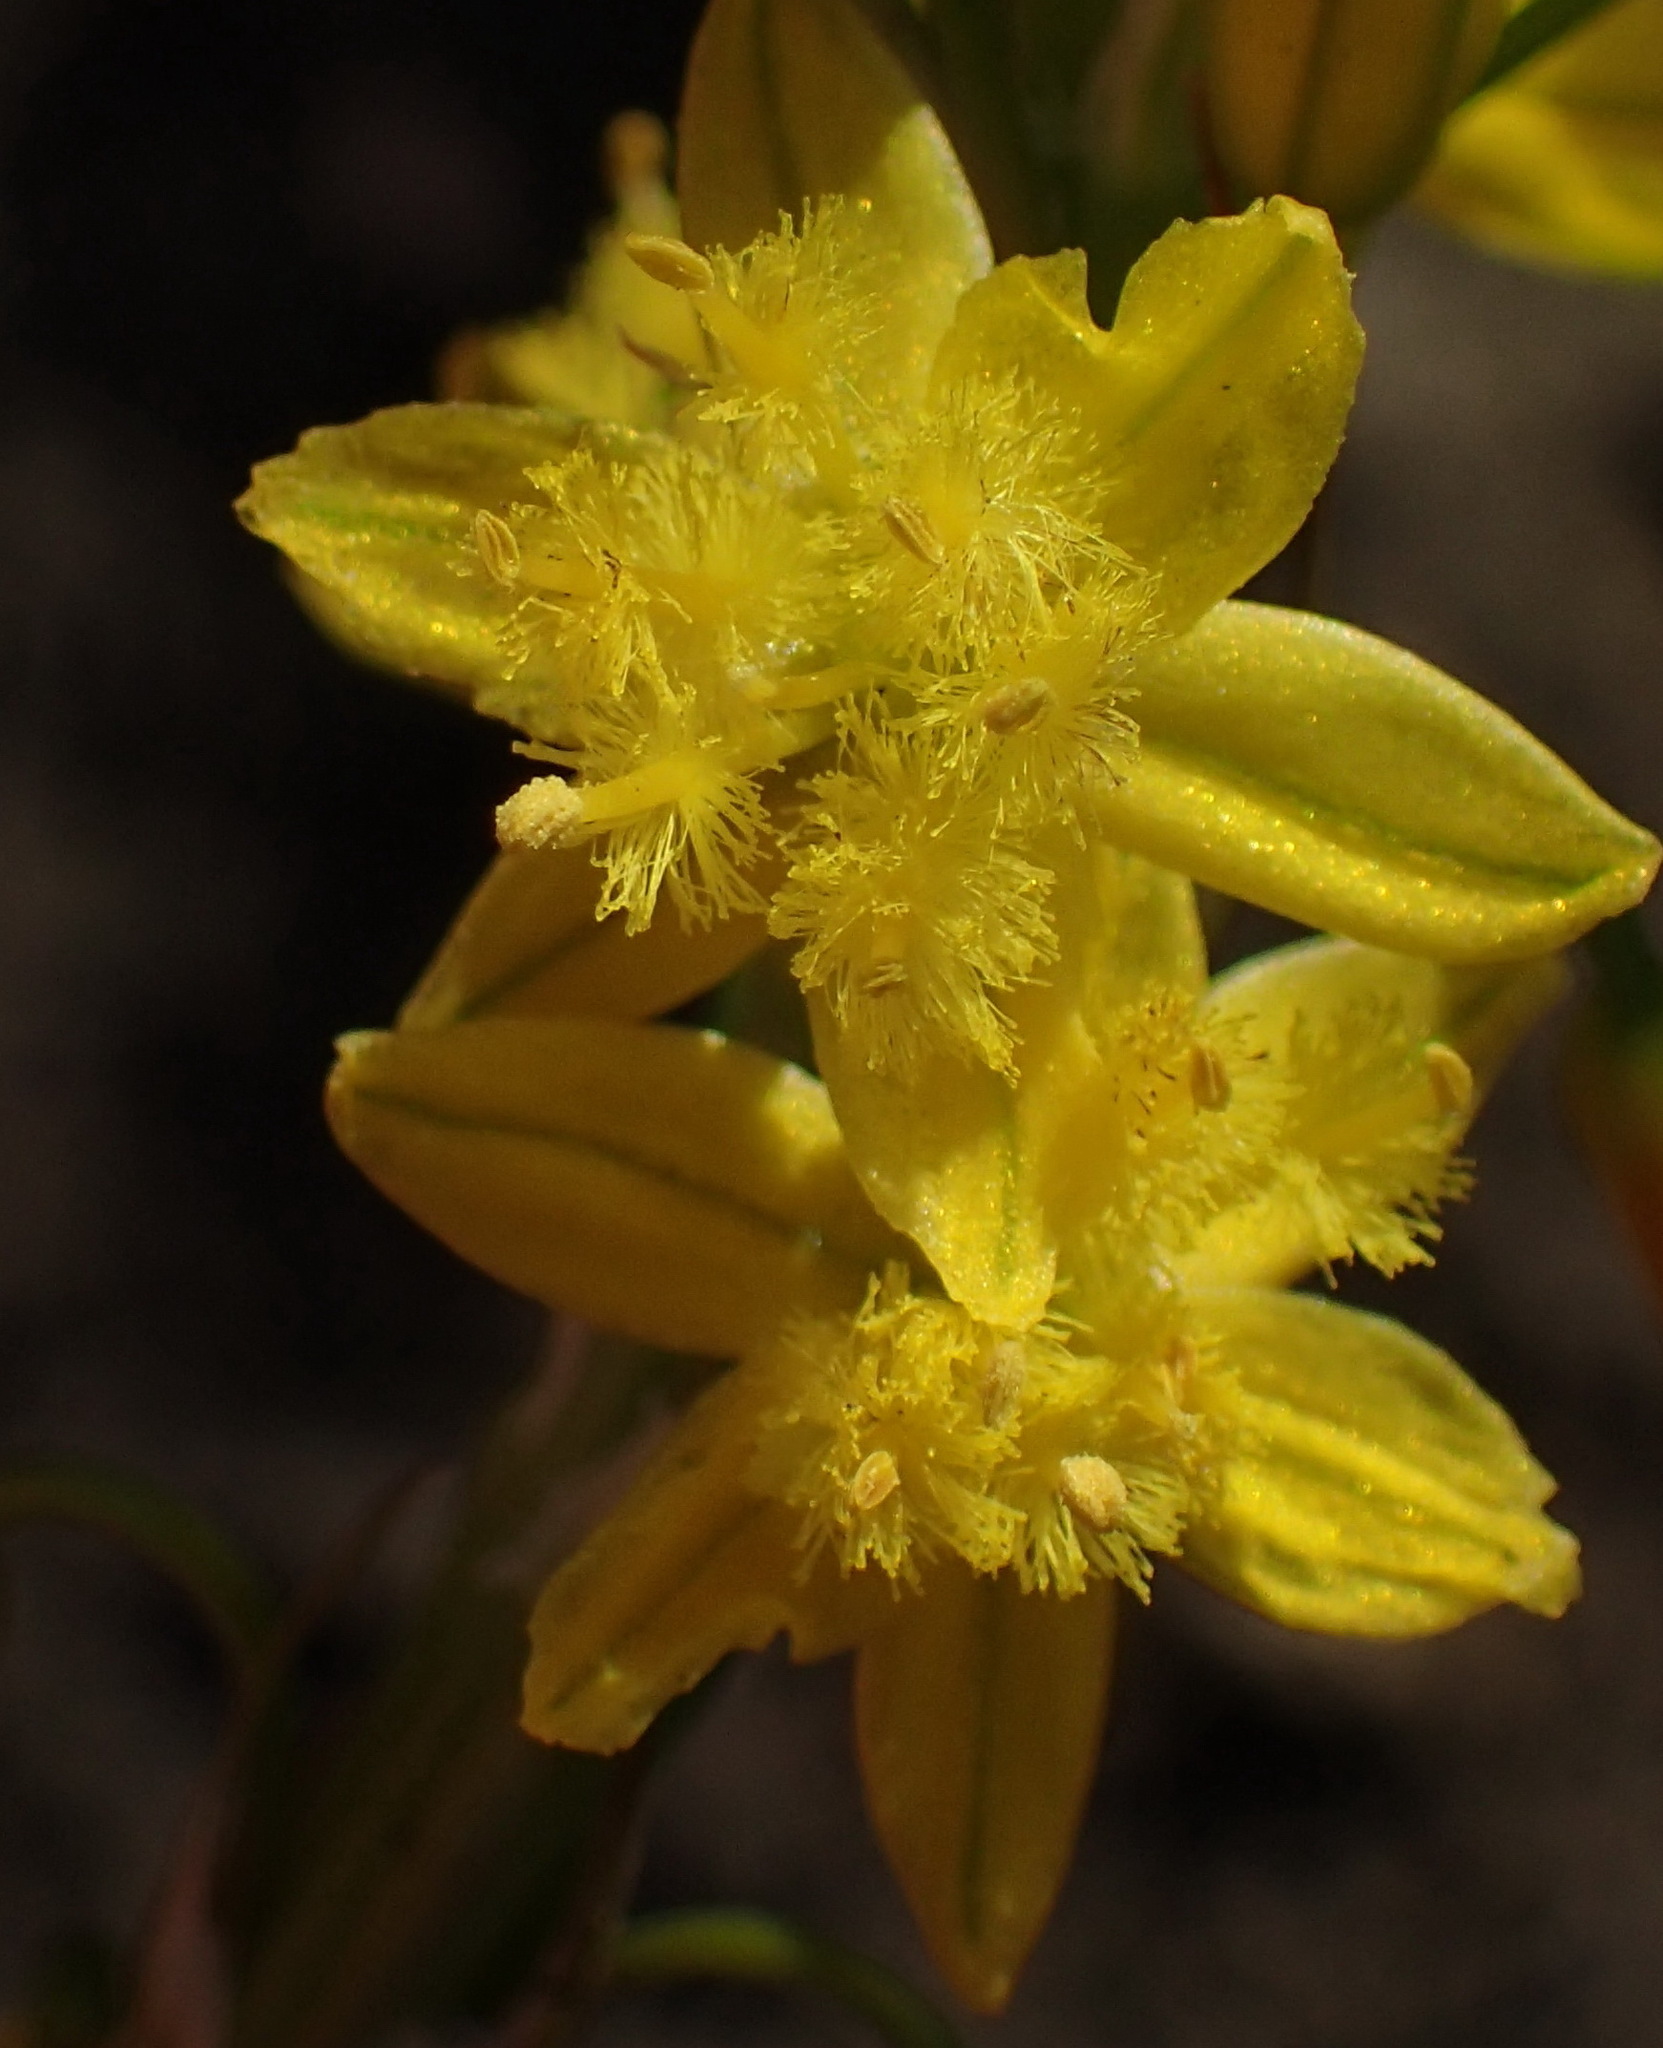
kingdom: Plantae
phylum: Tracheophyta
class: Liliopsida
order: Asparagales
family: Asphodelaceae
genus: Bulbine
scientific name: Bulbine lagopus
